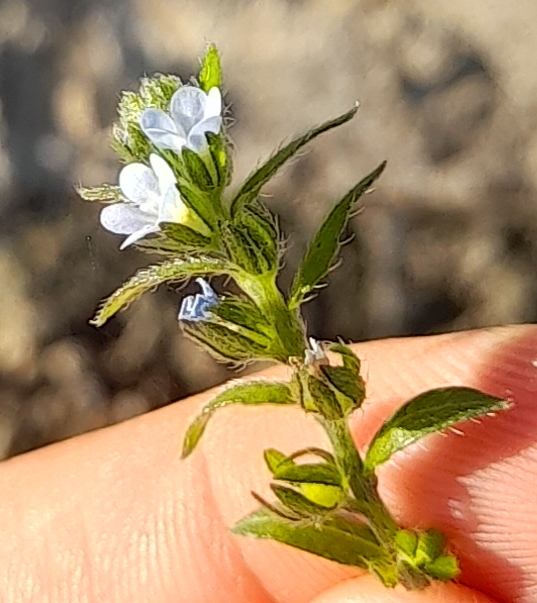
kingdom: Plantae
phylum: Tracheophyta
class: Magnoliopsida
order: Boraginales
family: Boraginaceae
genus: Lappula
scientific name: Lappula squarrosa
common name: European stickseed
